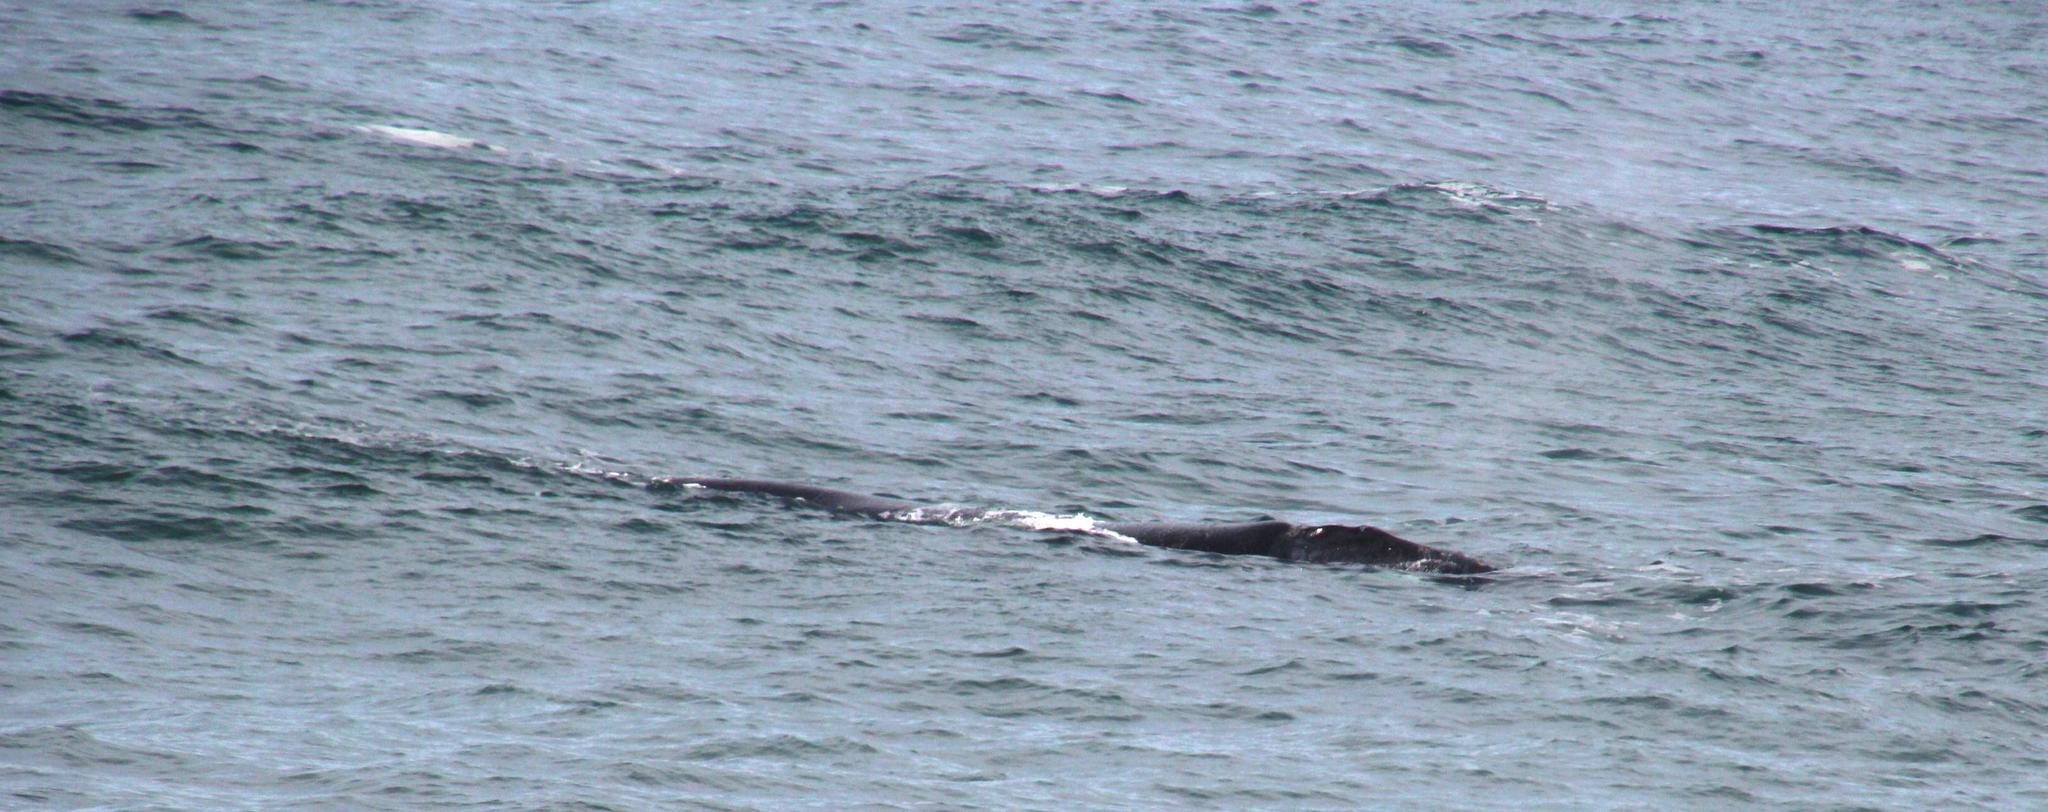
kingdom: Animalia
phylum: Chordata
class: Mammalia
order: Cetacea
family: Balaenidae
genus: Eubalaena
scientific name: Eubalaena australis
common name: Southern right whale
